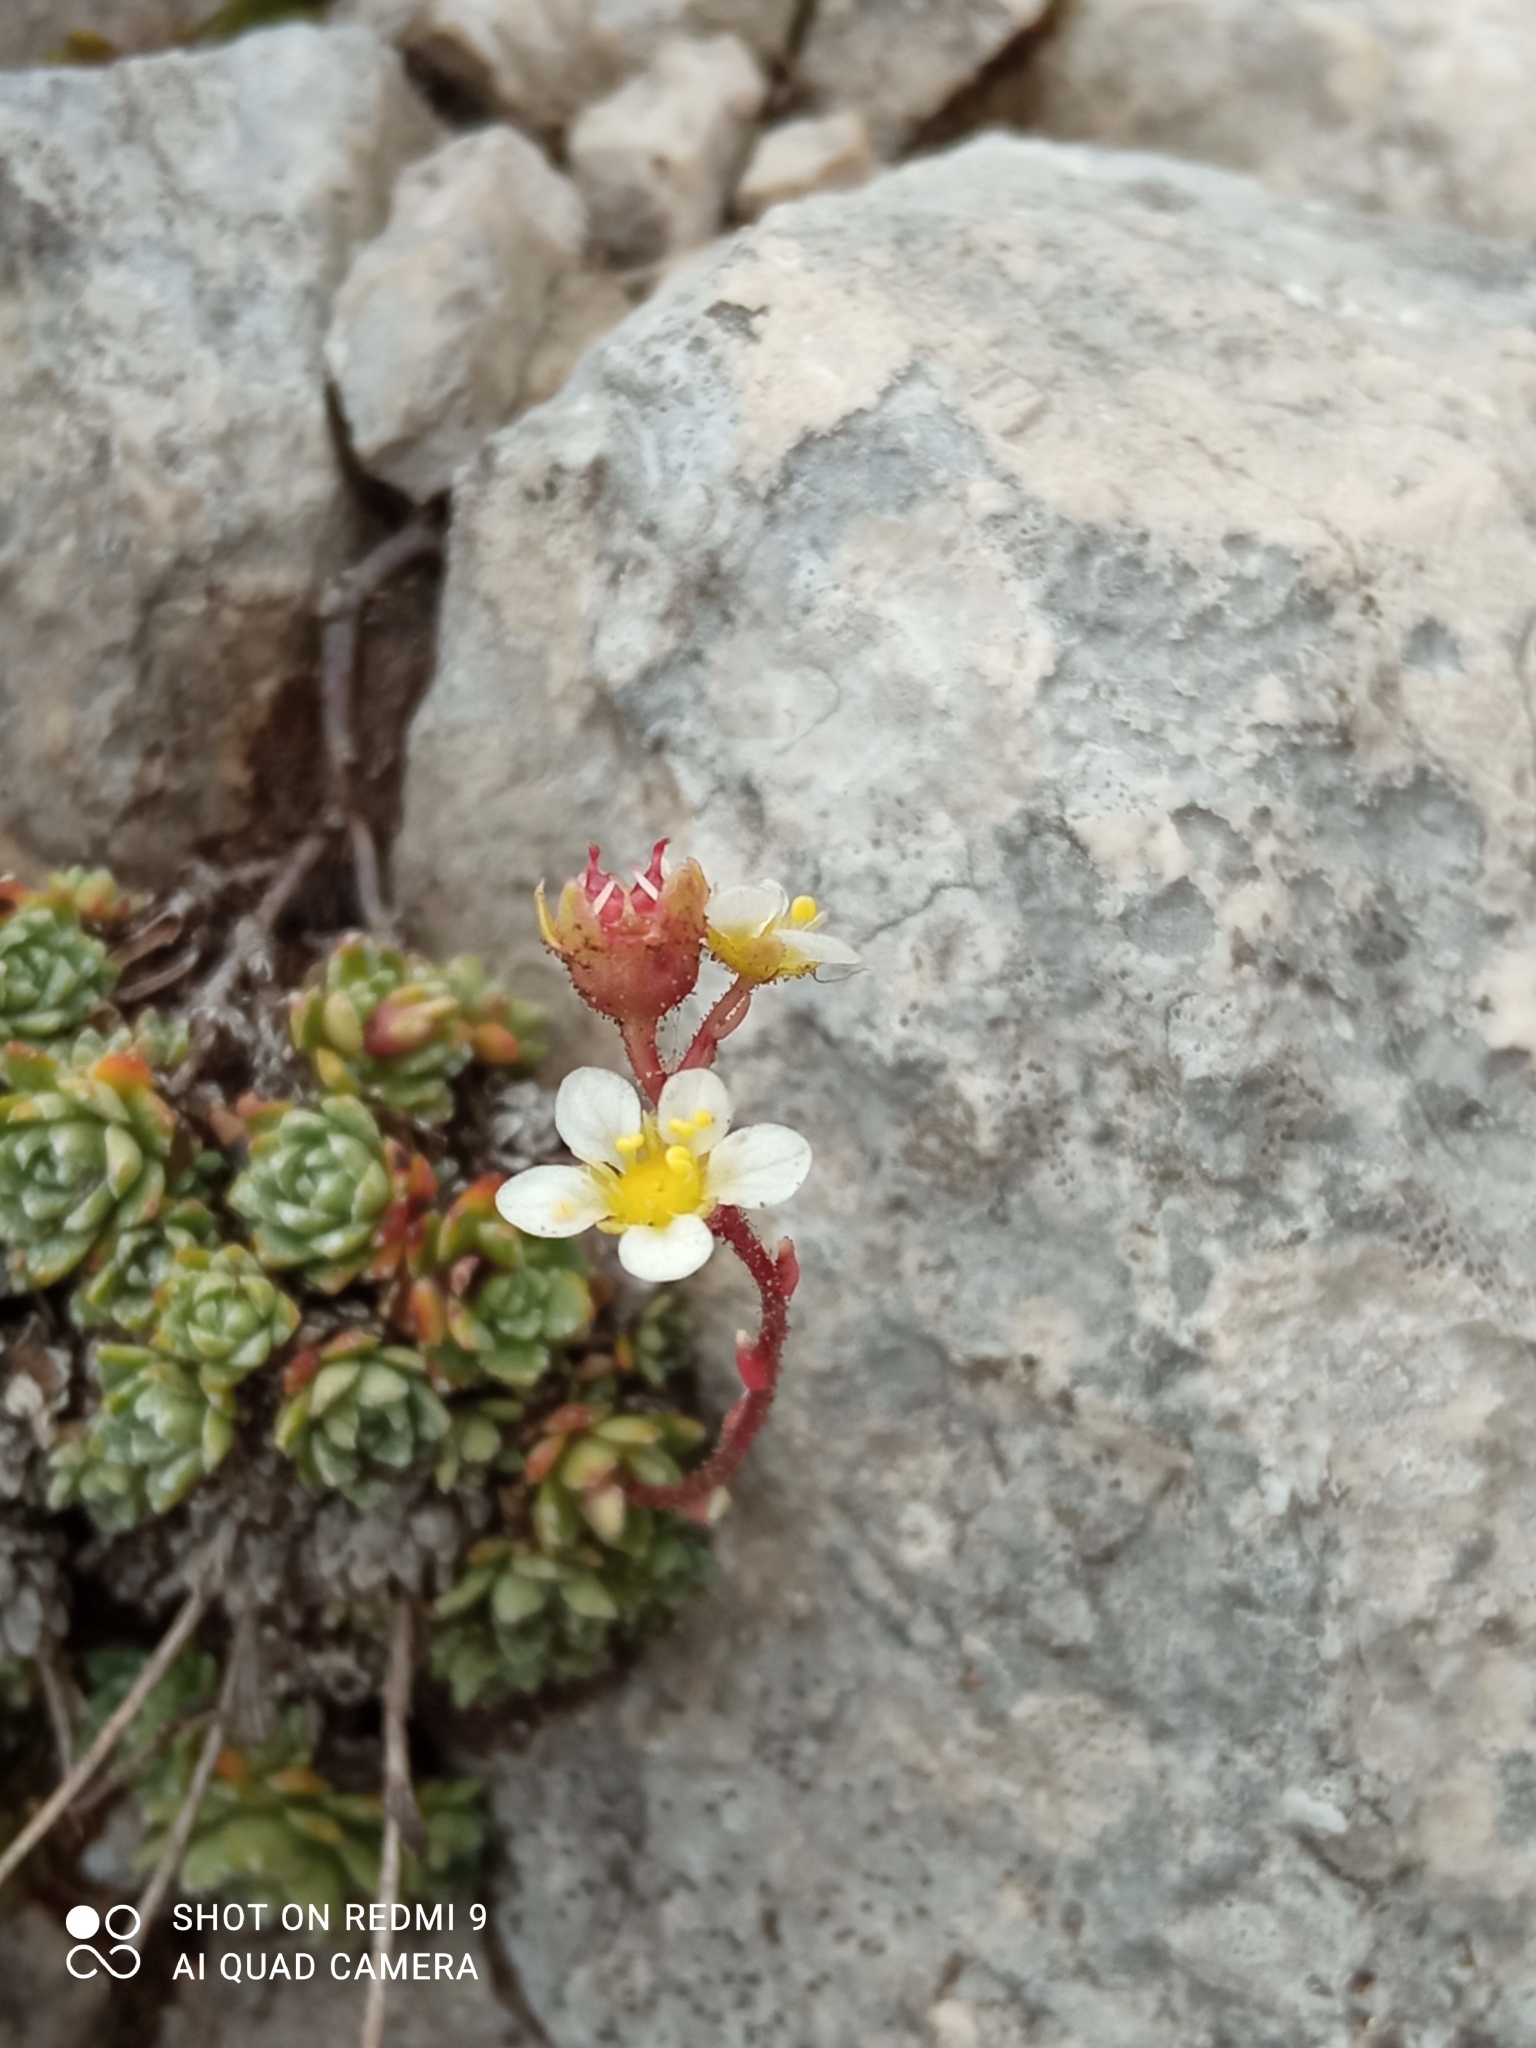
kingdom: Plantae
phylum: Tracheophyta
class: Magnoliopsida
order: Saxifragales
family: Saxifragaceae
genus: Saxifraga
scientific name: Saxifraga paniculata
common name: Livelong saxifrage
